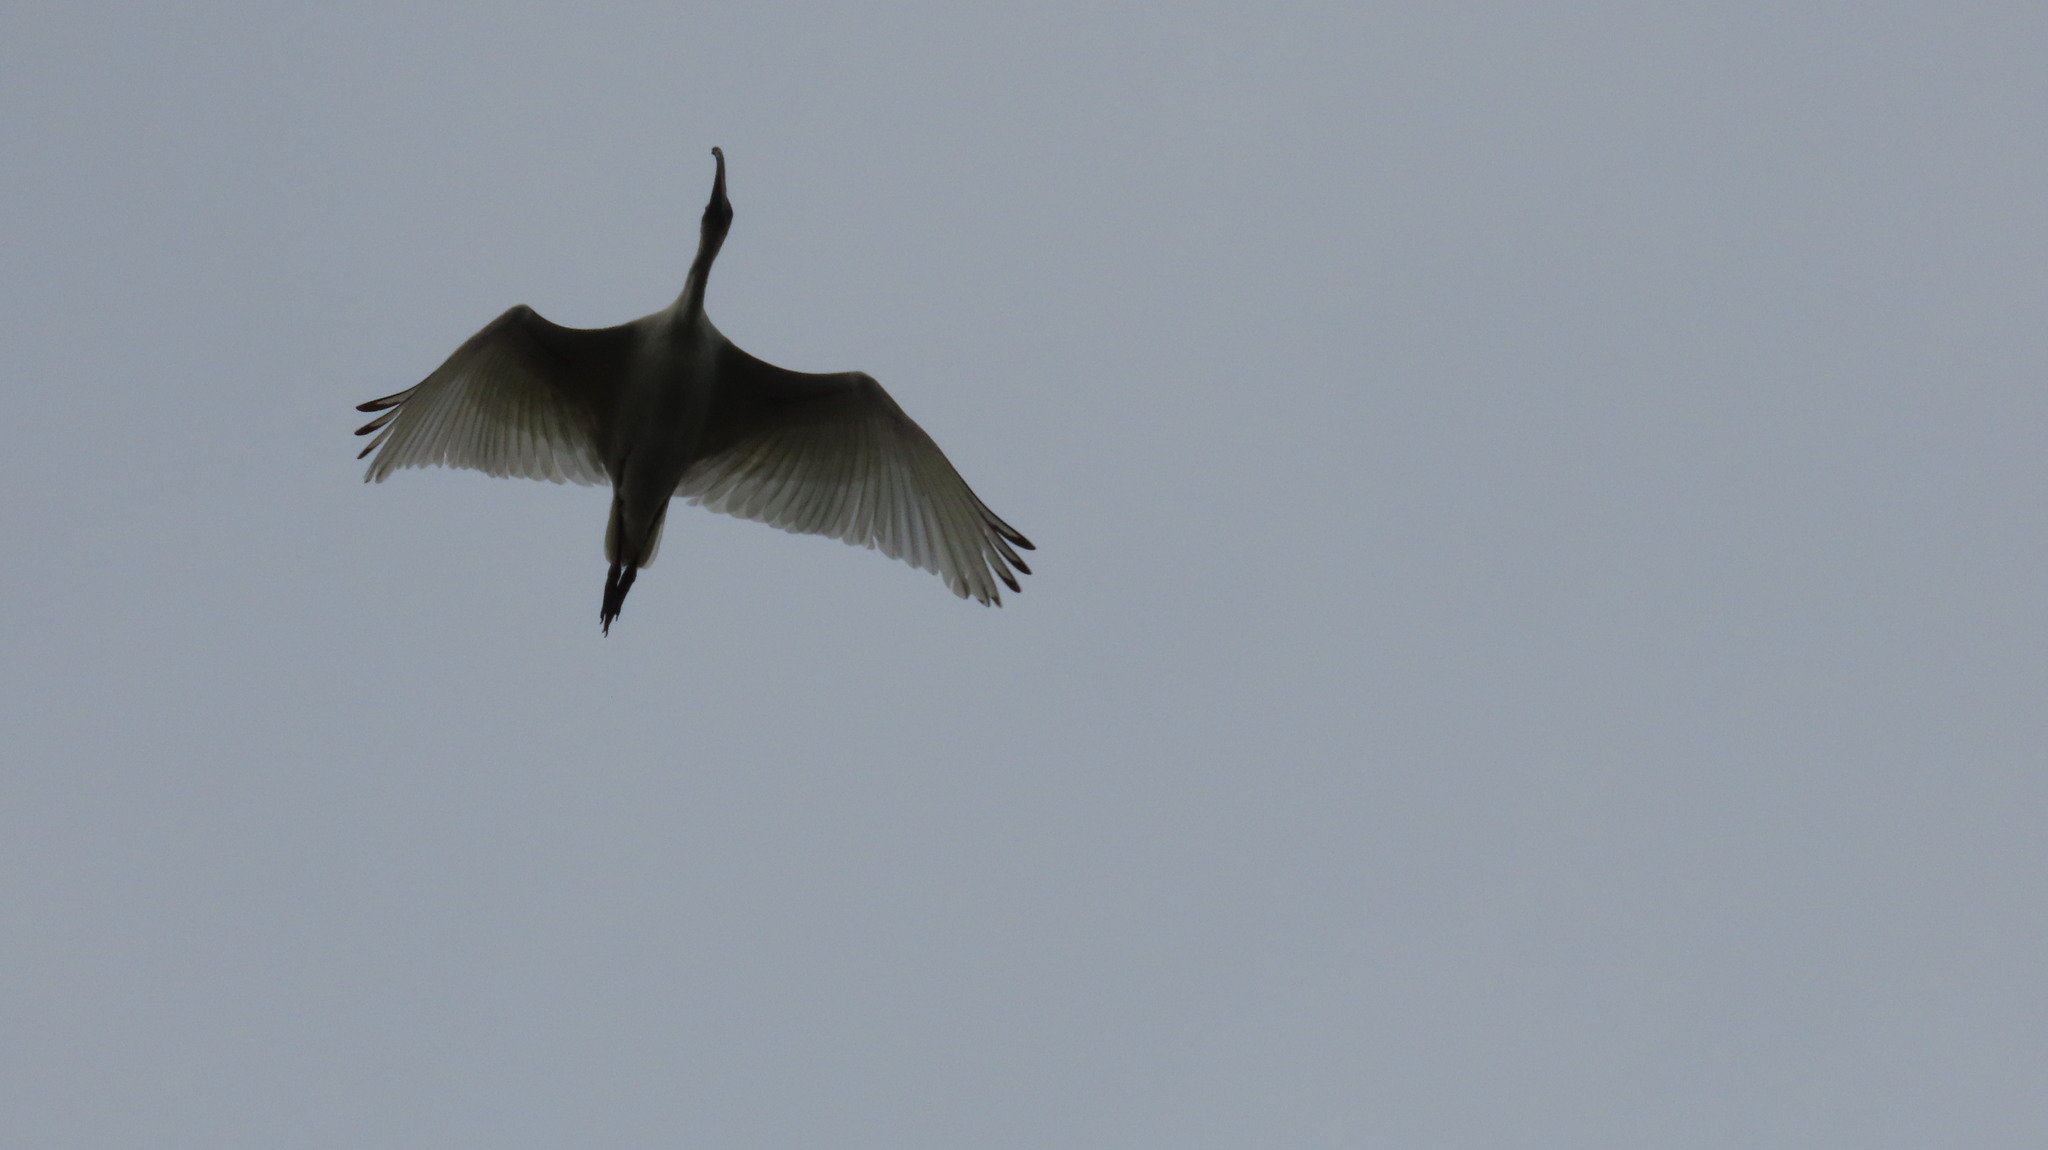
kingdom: Animalia
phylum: Chordata
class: Aves
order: Pelecaniformes
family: Threskiornithidae
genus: Threskiornis
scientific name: Threskiornis melanocephalus
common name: Black-headed ibis
